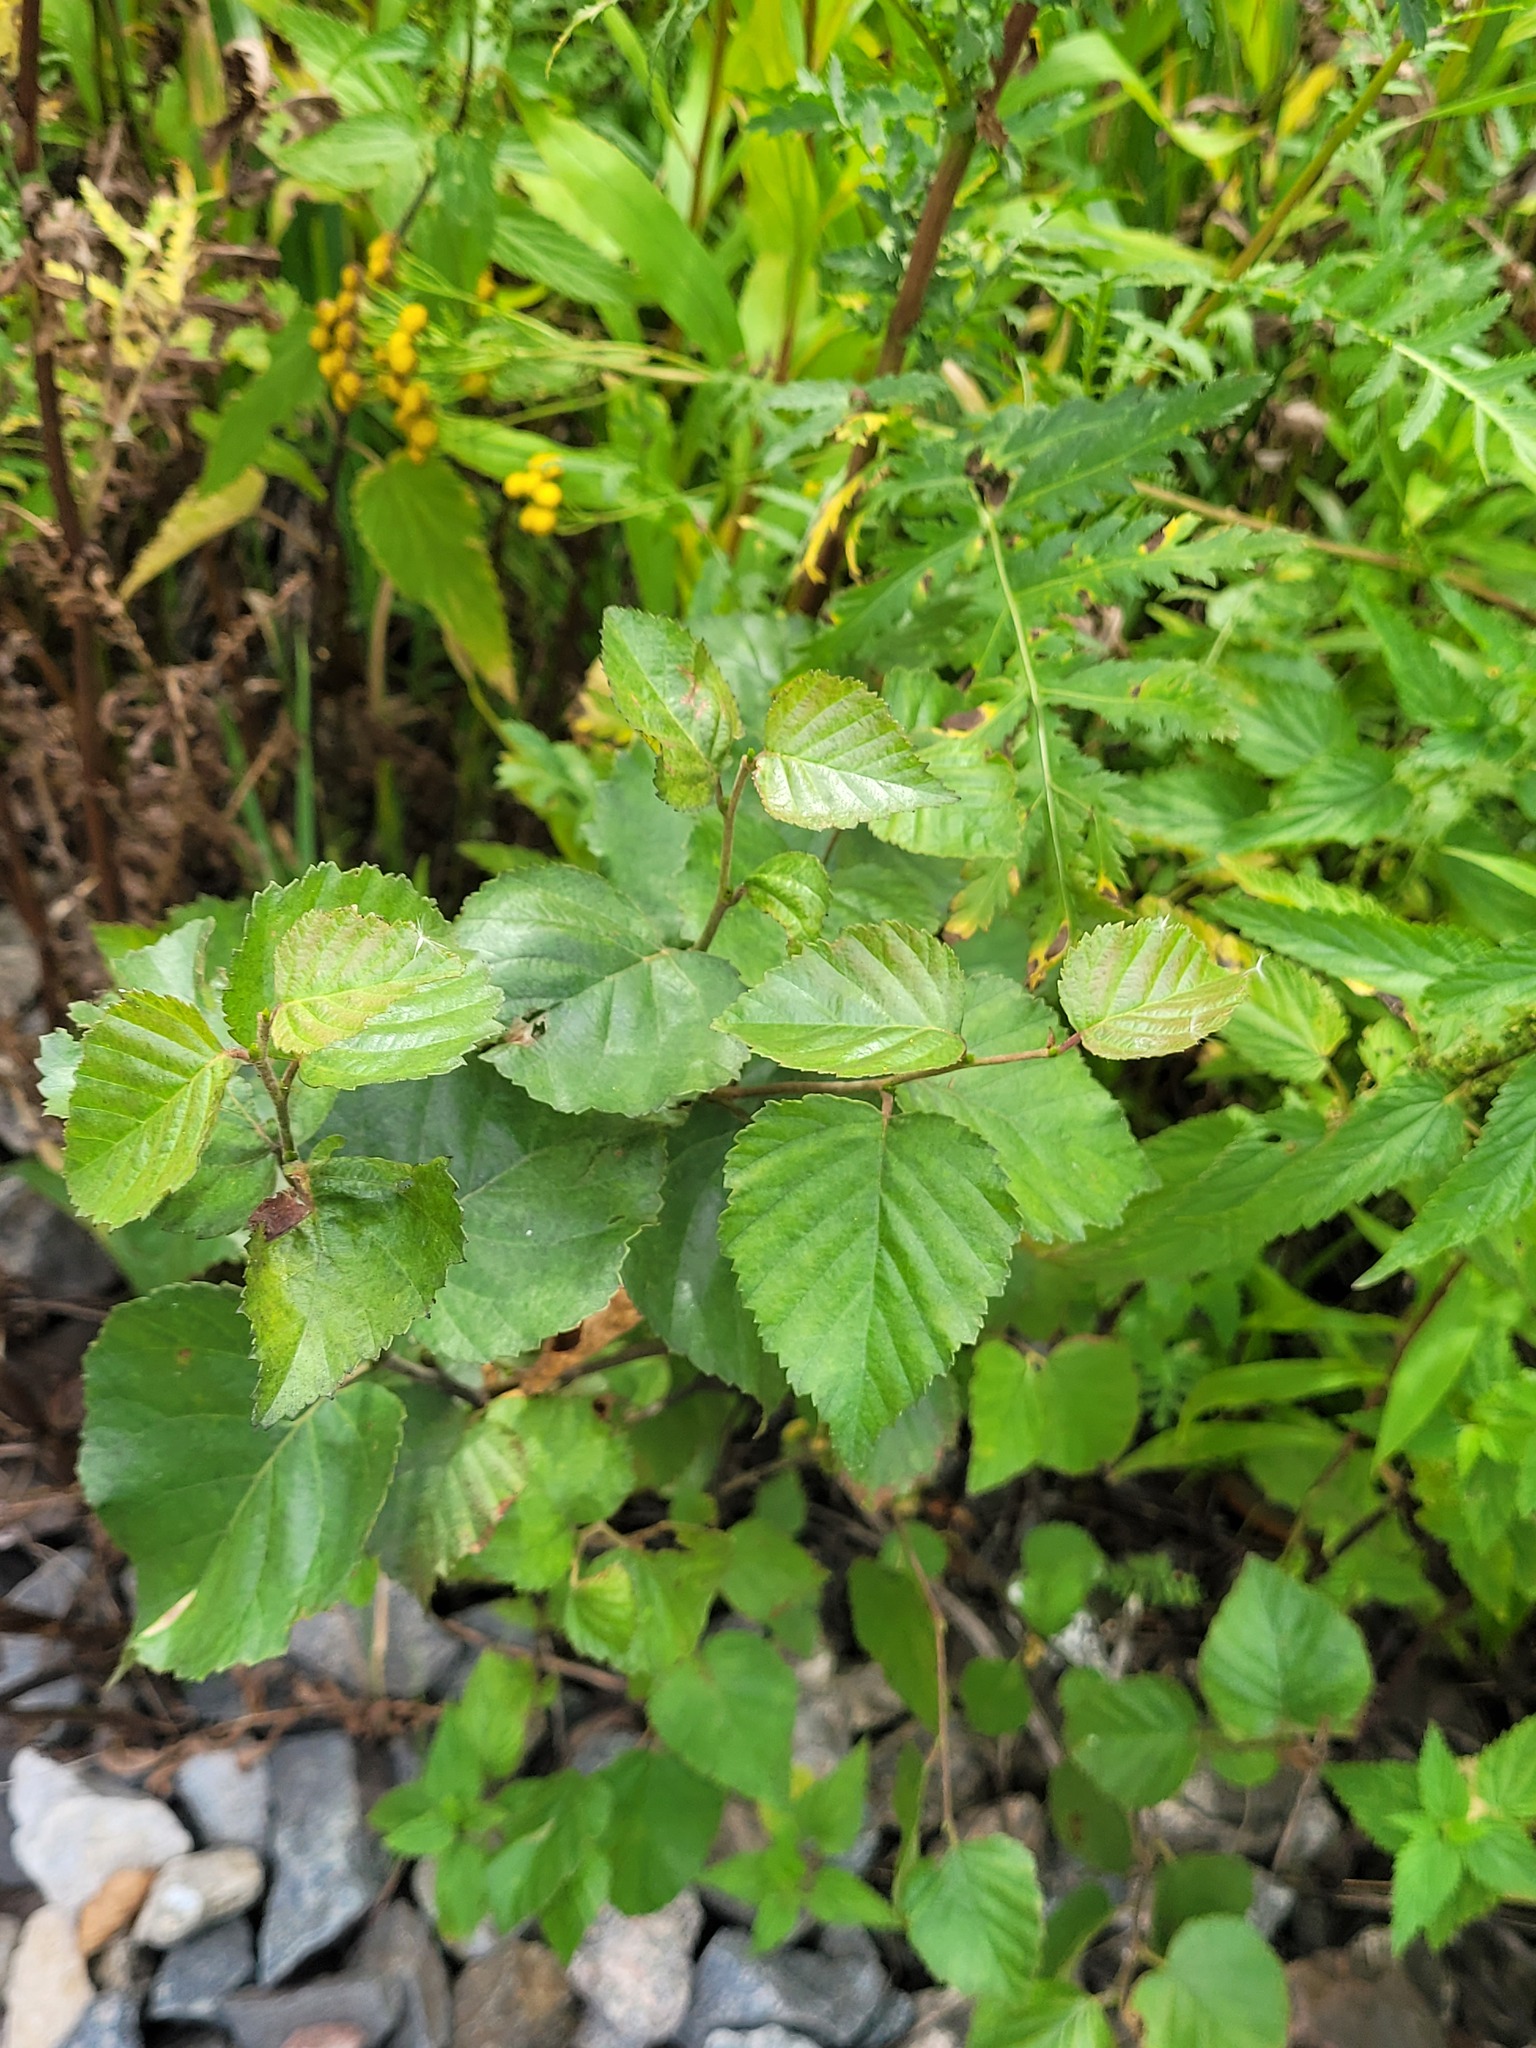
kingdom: Plantae
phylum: Tracheophyta
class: Magnoliopsida
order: Fagales
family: Betulaceae
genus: Betula
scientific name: Betula pubescens
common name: Downy birch
